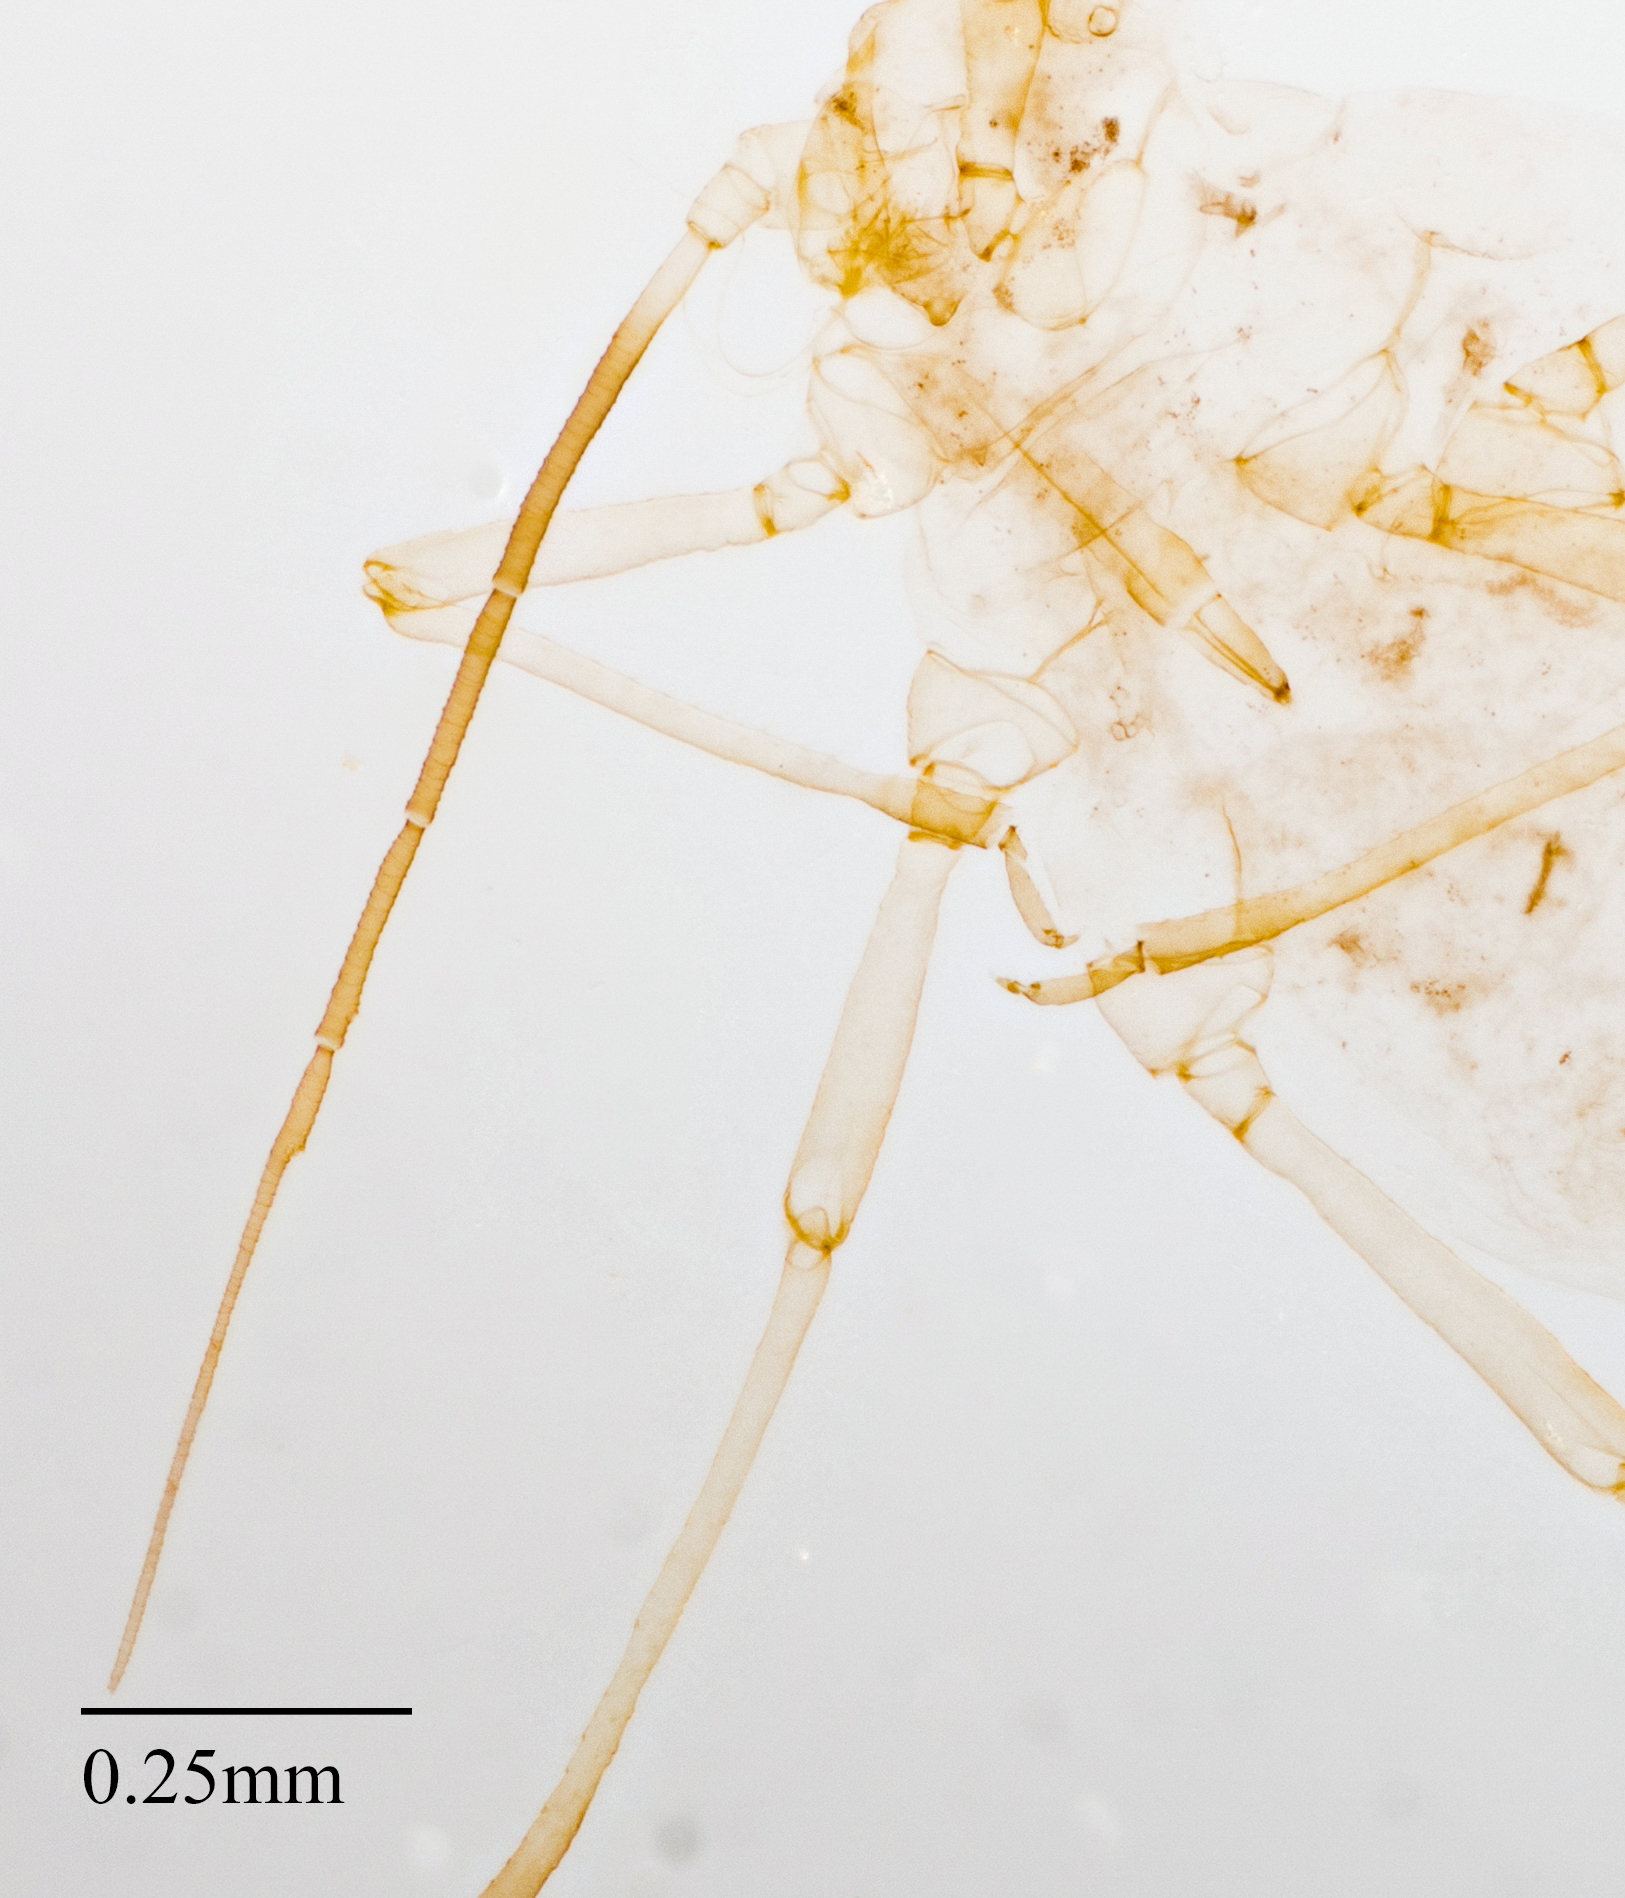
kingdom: Animalia
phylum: Arthropoda
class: Insecta
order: Hemiptera
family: Aphididae
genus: Aphis
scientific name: Aphis coreopsidis
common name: Aphid
